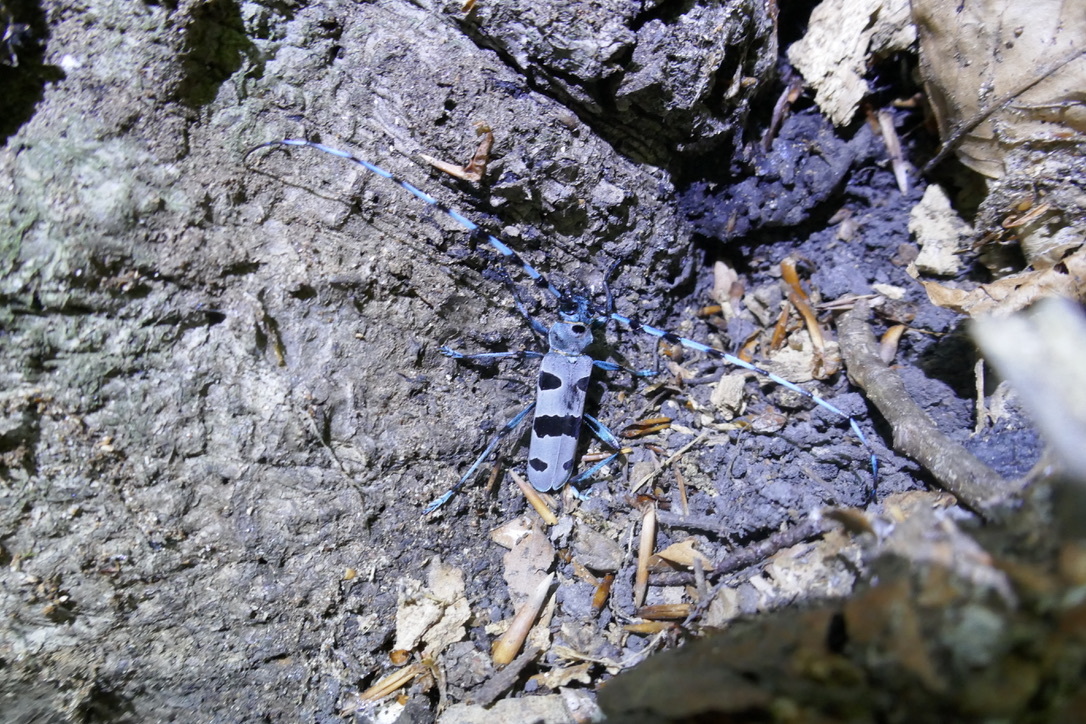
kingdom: Animalia
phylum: Arthropoda
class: Insecta
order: Coleoptera
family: Cerambycidae
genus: Rosalia
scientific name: Rosalia alpina
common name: Rosalia longicorn
